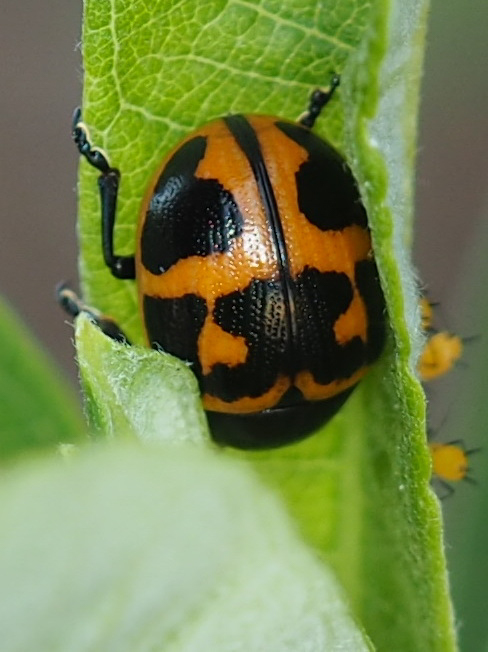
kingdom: Animalia
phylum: Arthropoda
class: Insecta
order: Coleoptera
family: Chrysomelidae
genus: Labidomera
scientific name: Labidomera clivicollis
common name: Swamp milkweed leaf beetle
